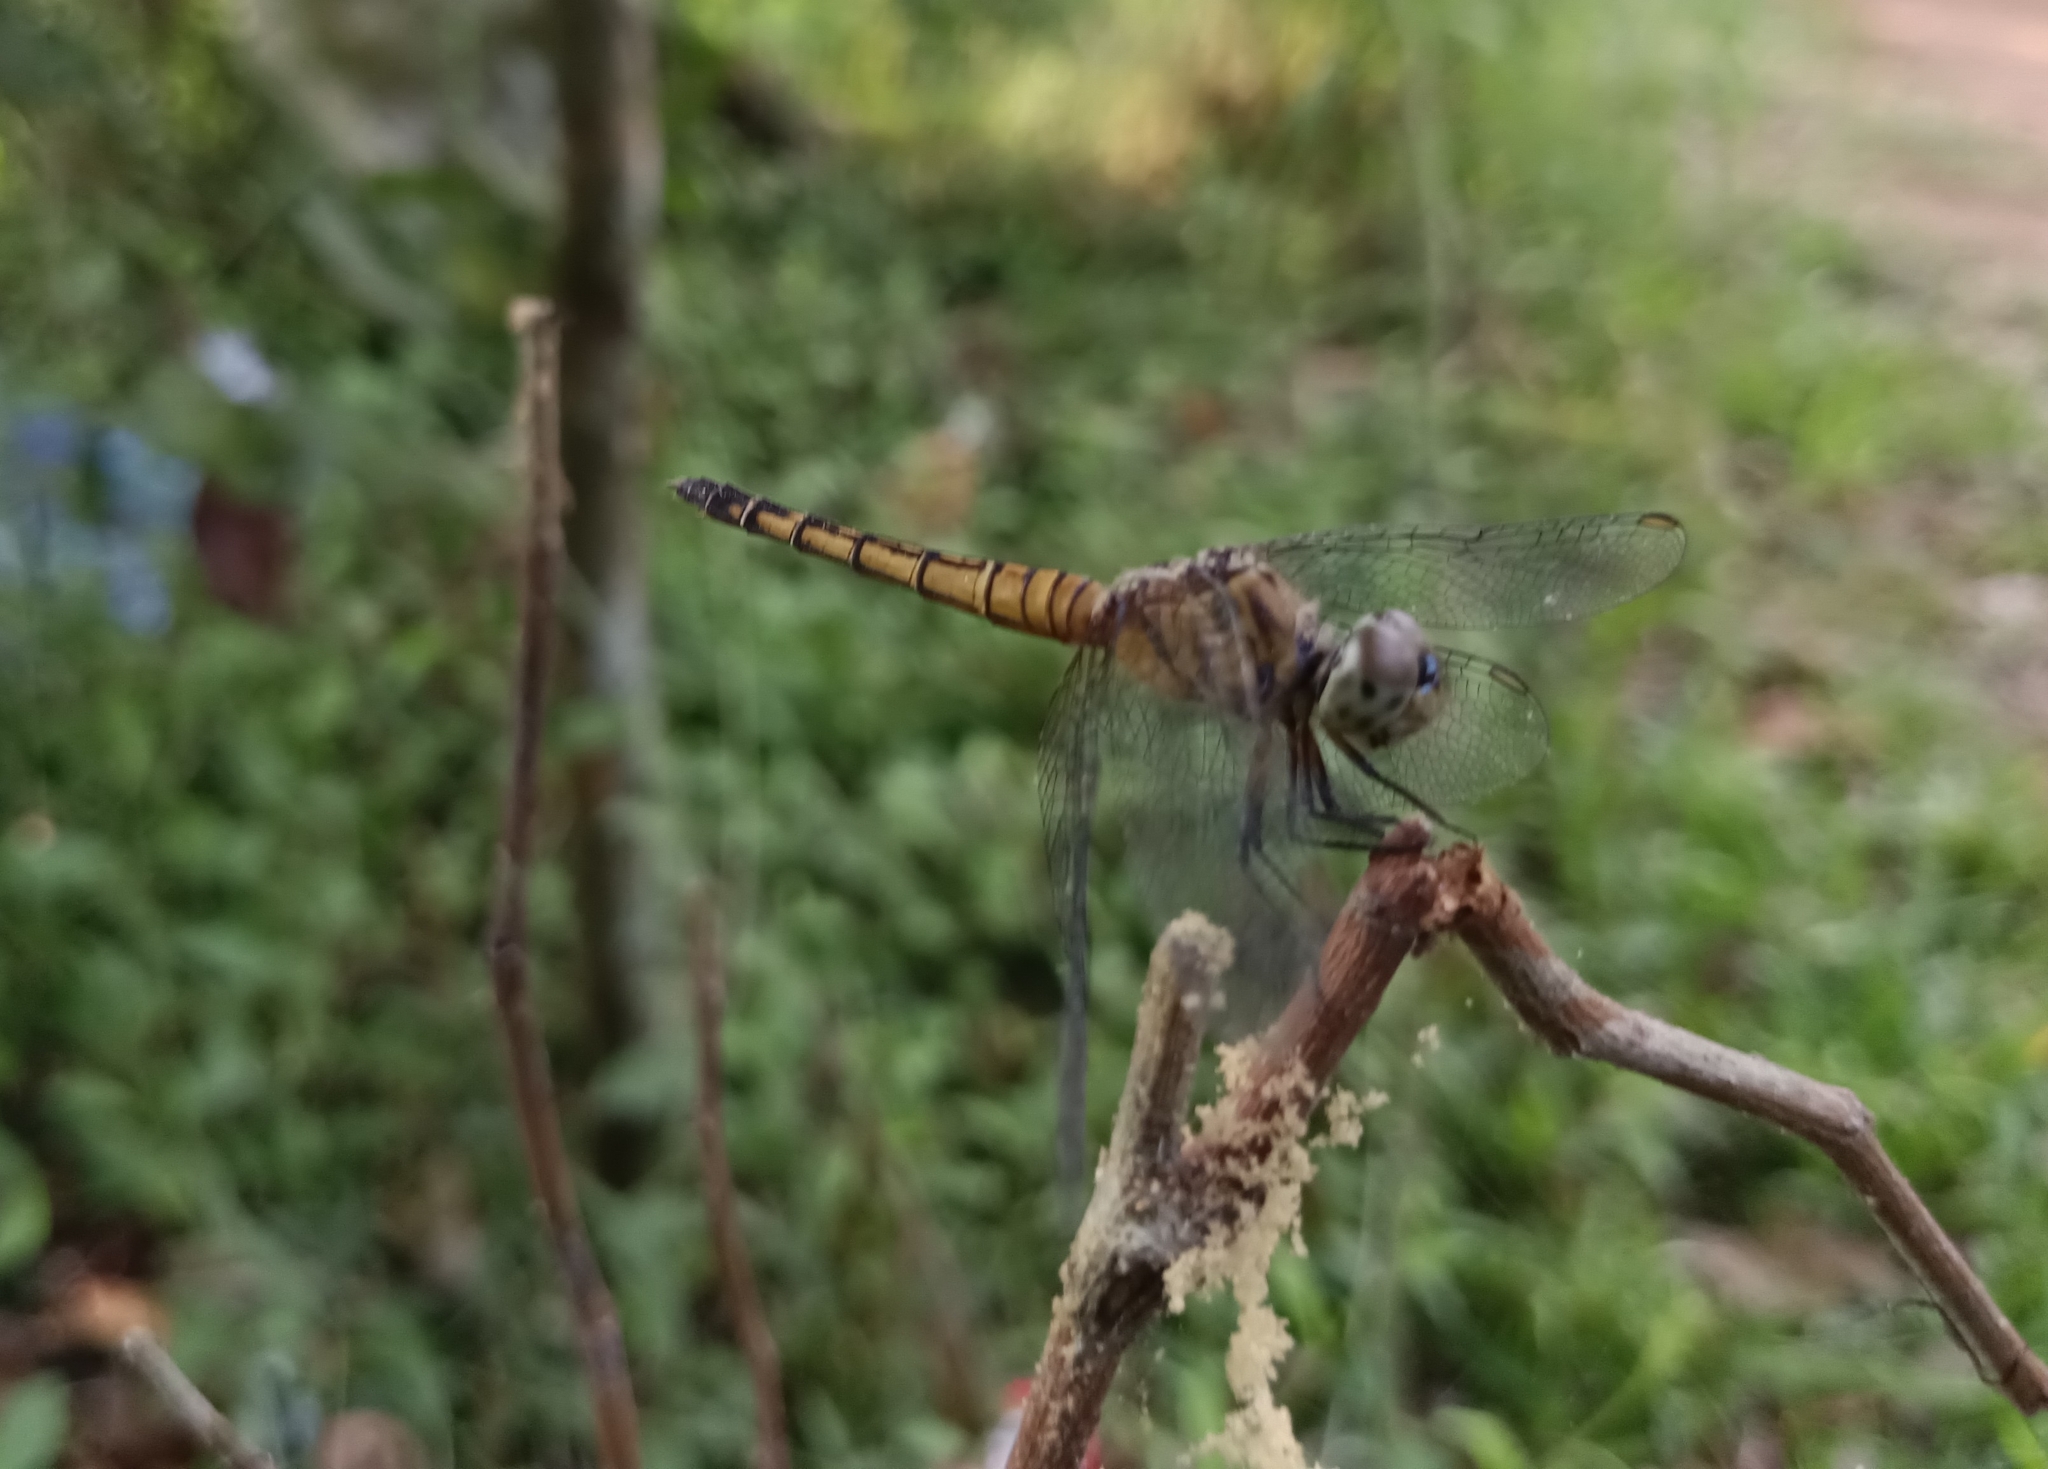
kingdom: Animalia
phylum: Arthropoda
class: Insecta
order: Odonata
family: Libellulidae
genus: Brachydiplax
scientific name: Brachydiplax chalybea
